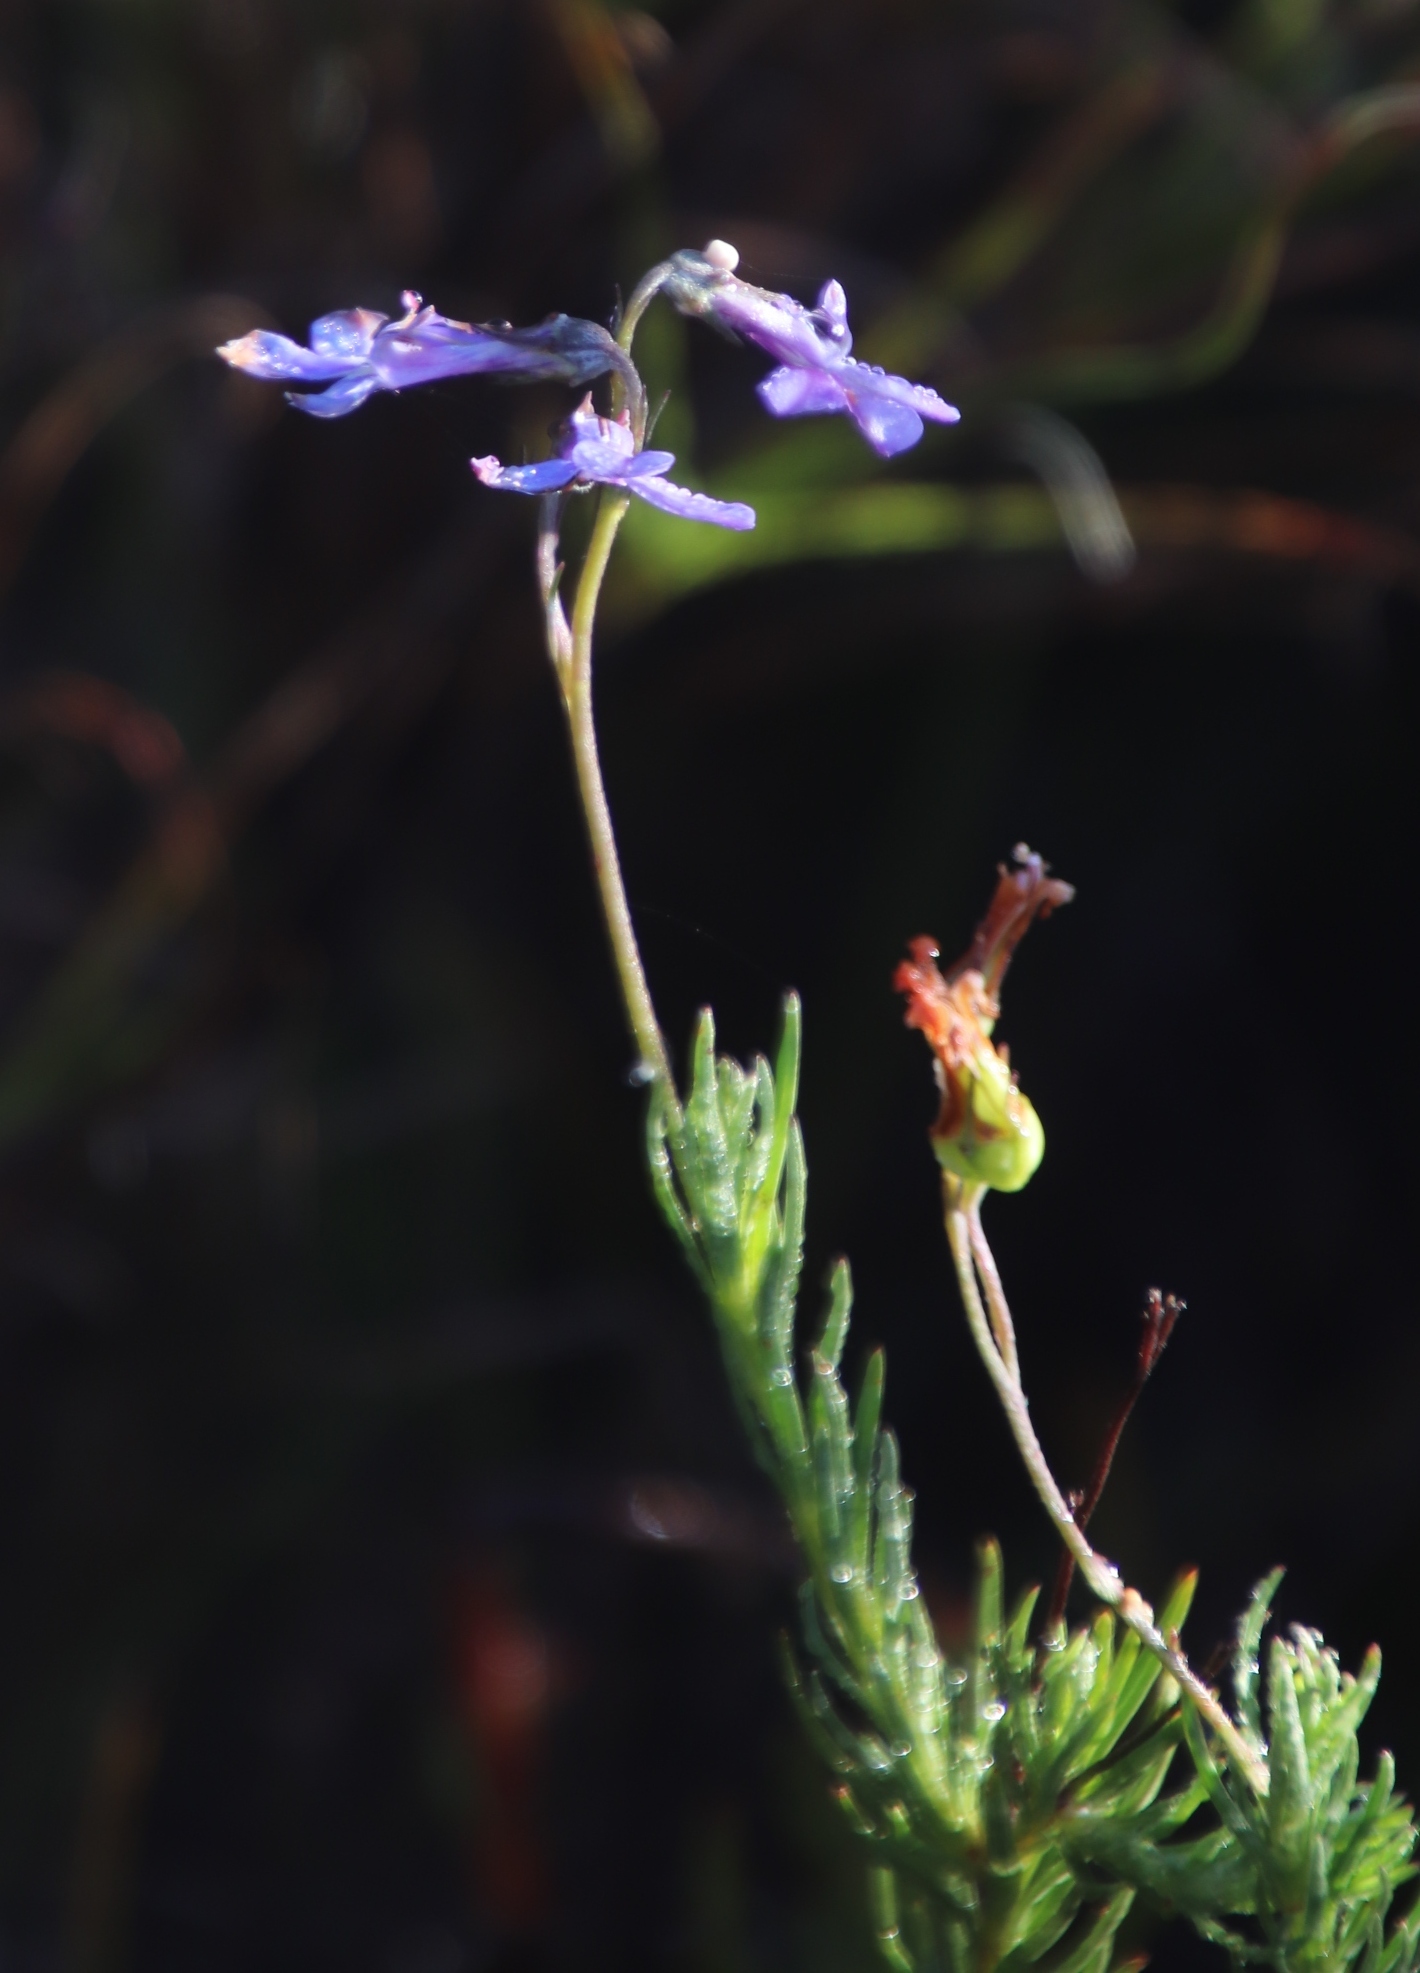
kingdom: Plantae
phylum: Tracheophyta
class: Magnoliopsida
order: Asterales
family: Campanulaceae
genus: Lobelia
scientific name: Lobelia pinifolia
